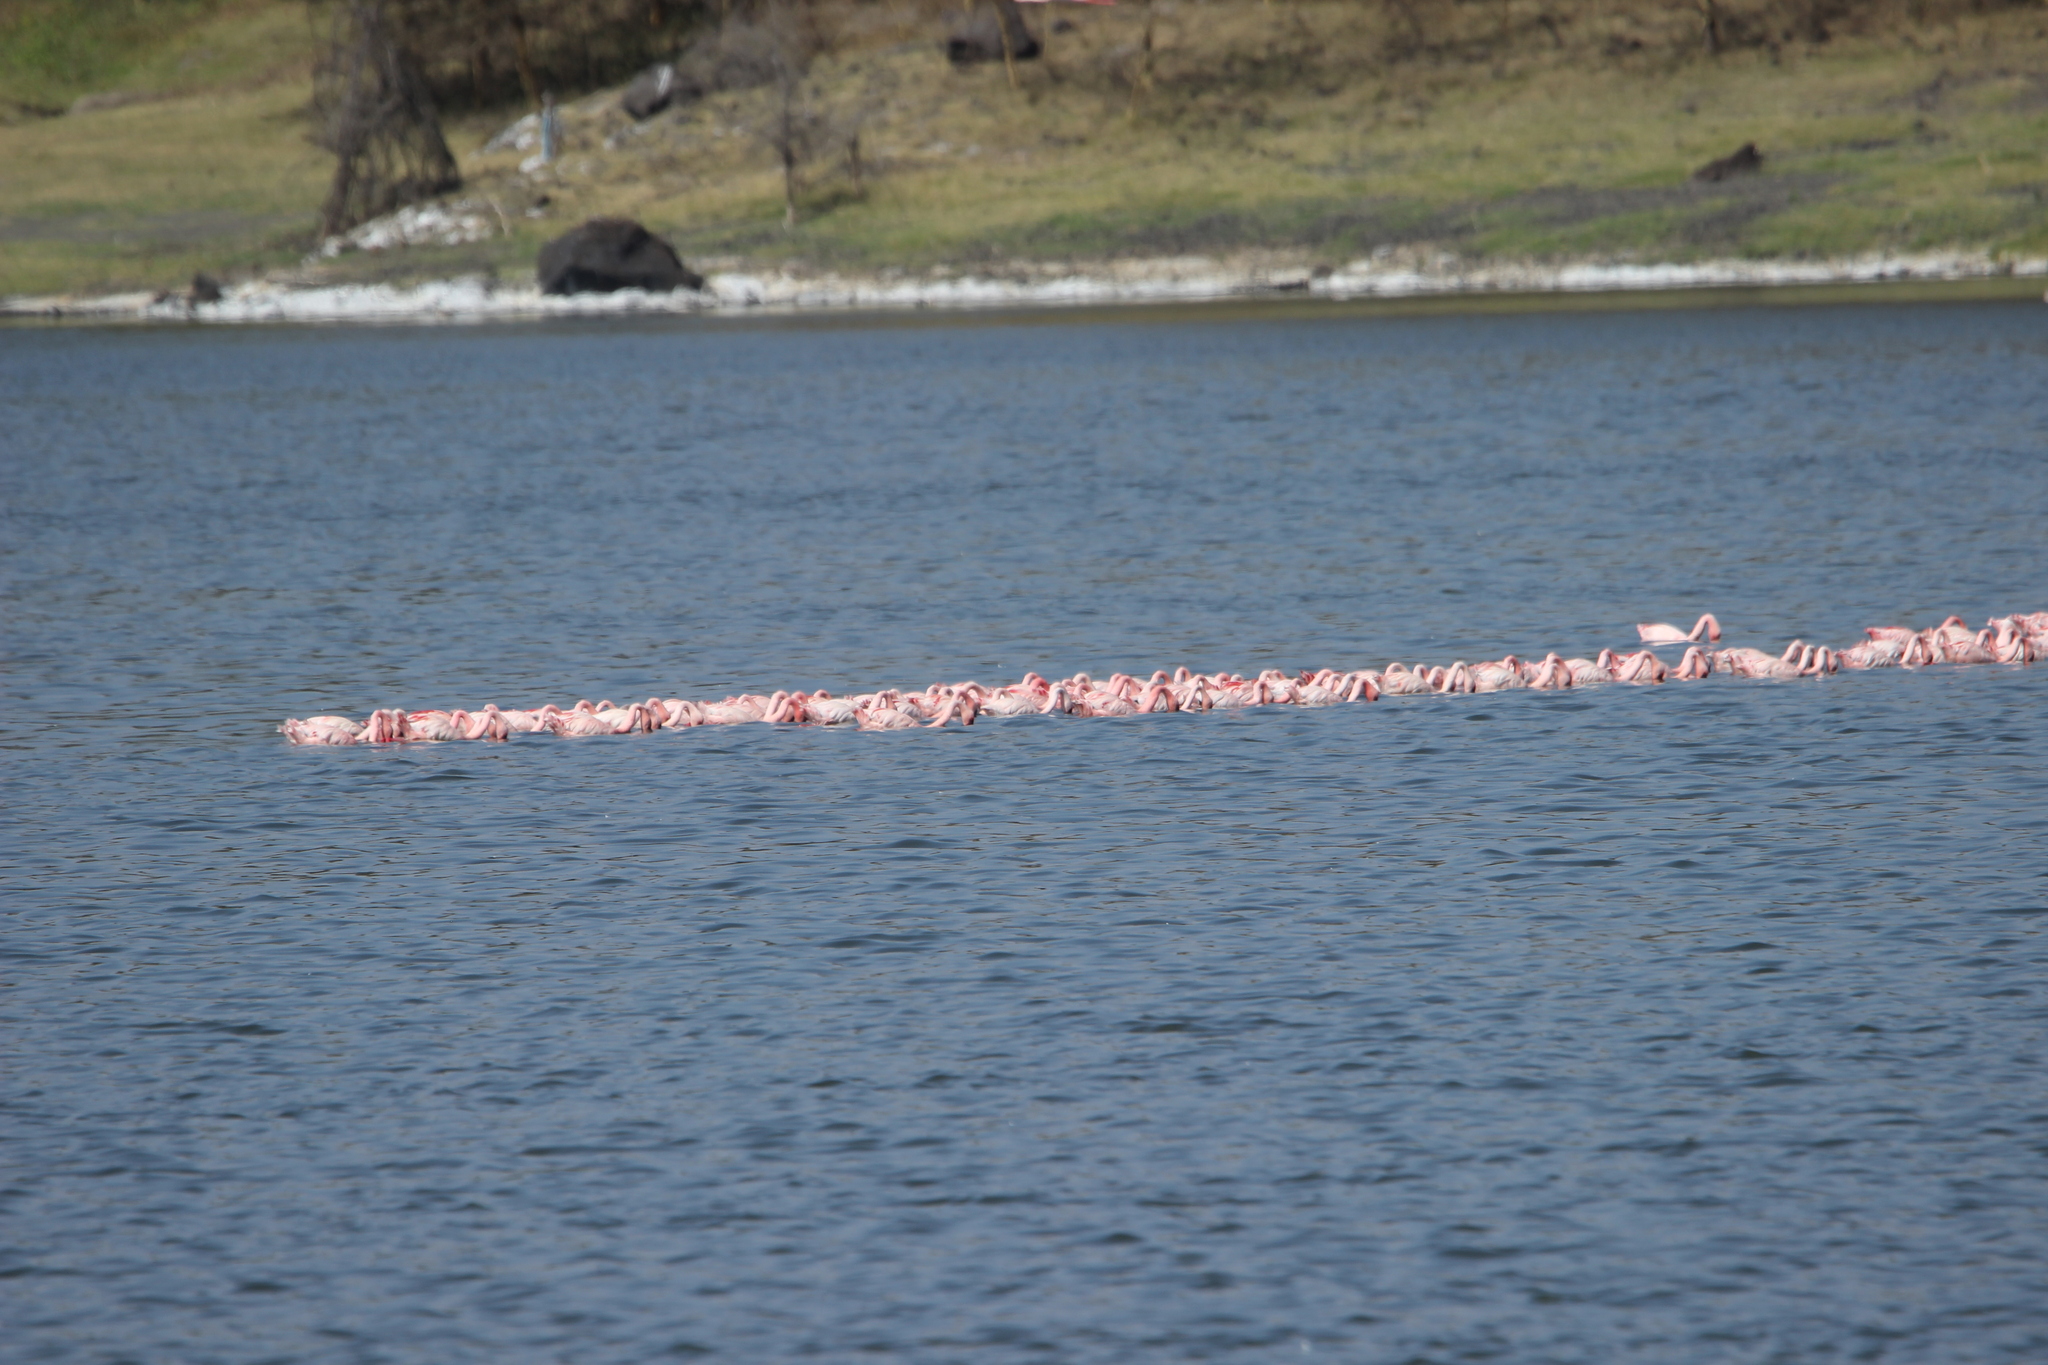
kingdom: Animalia
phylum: Chordata
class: Aves
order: Phoenicopteriformes
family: Phoenicopteridae
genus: Phoeniconaias
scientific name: Phoeniconaias minor
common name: Lesser flamingo
